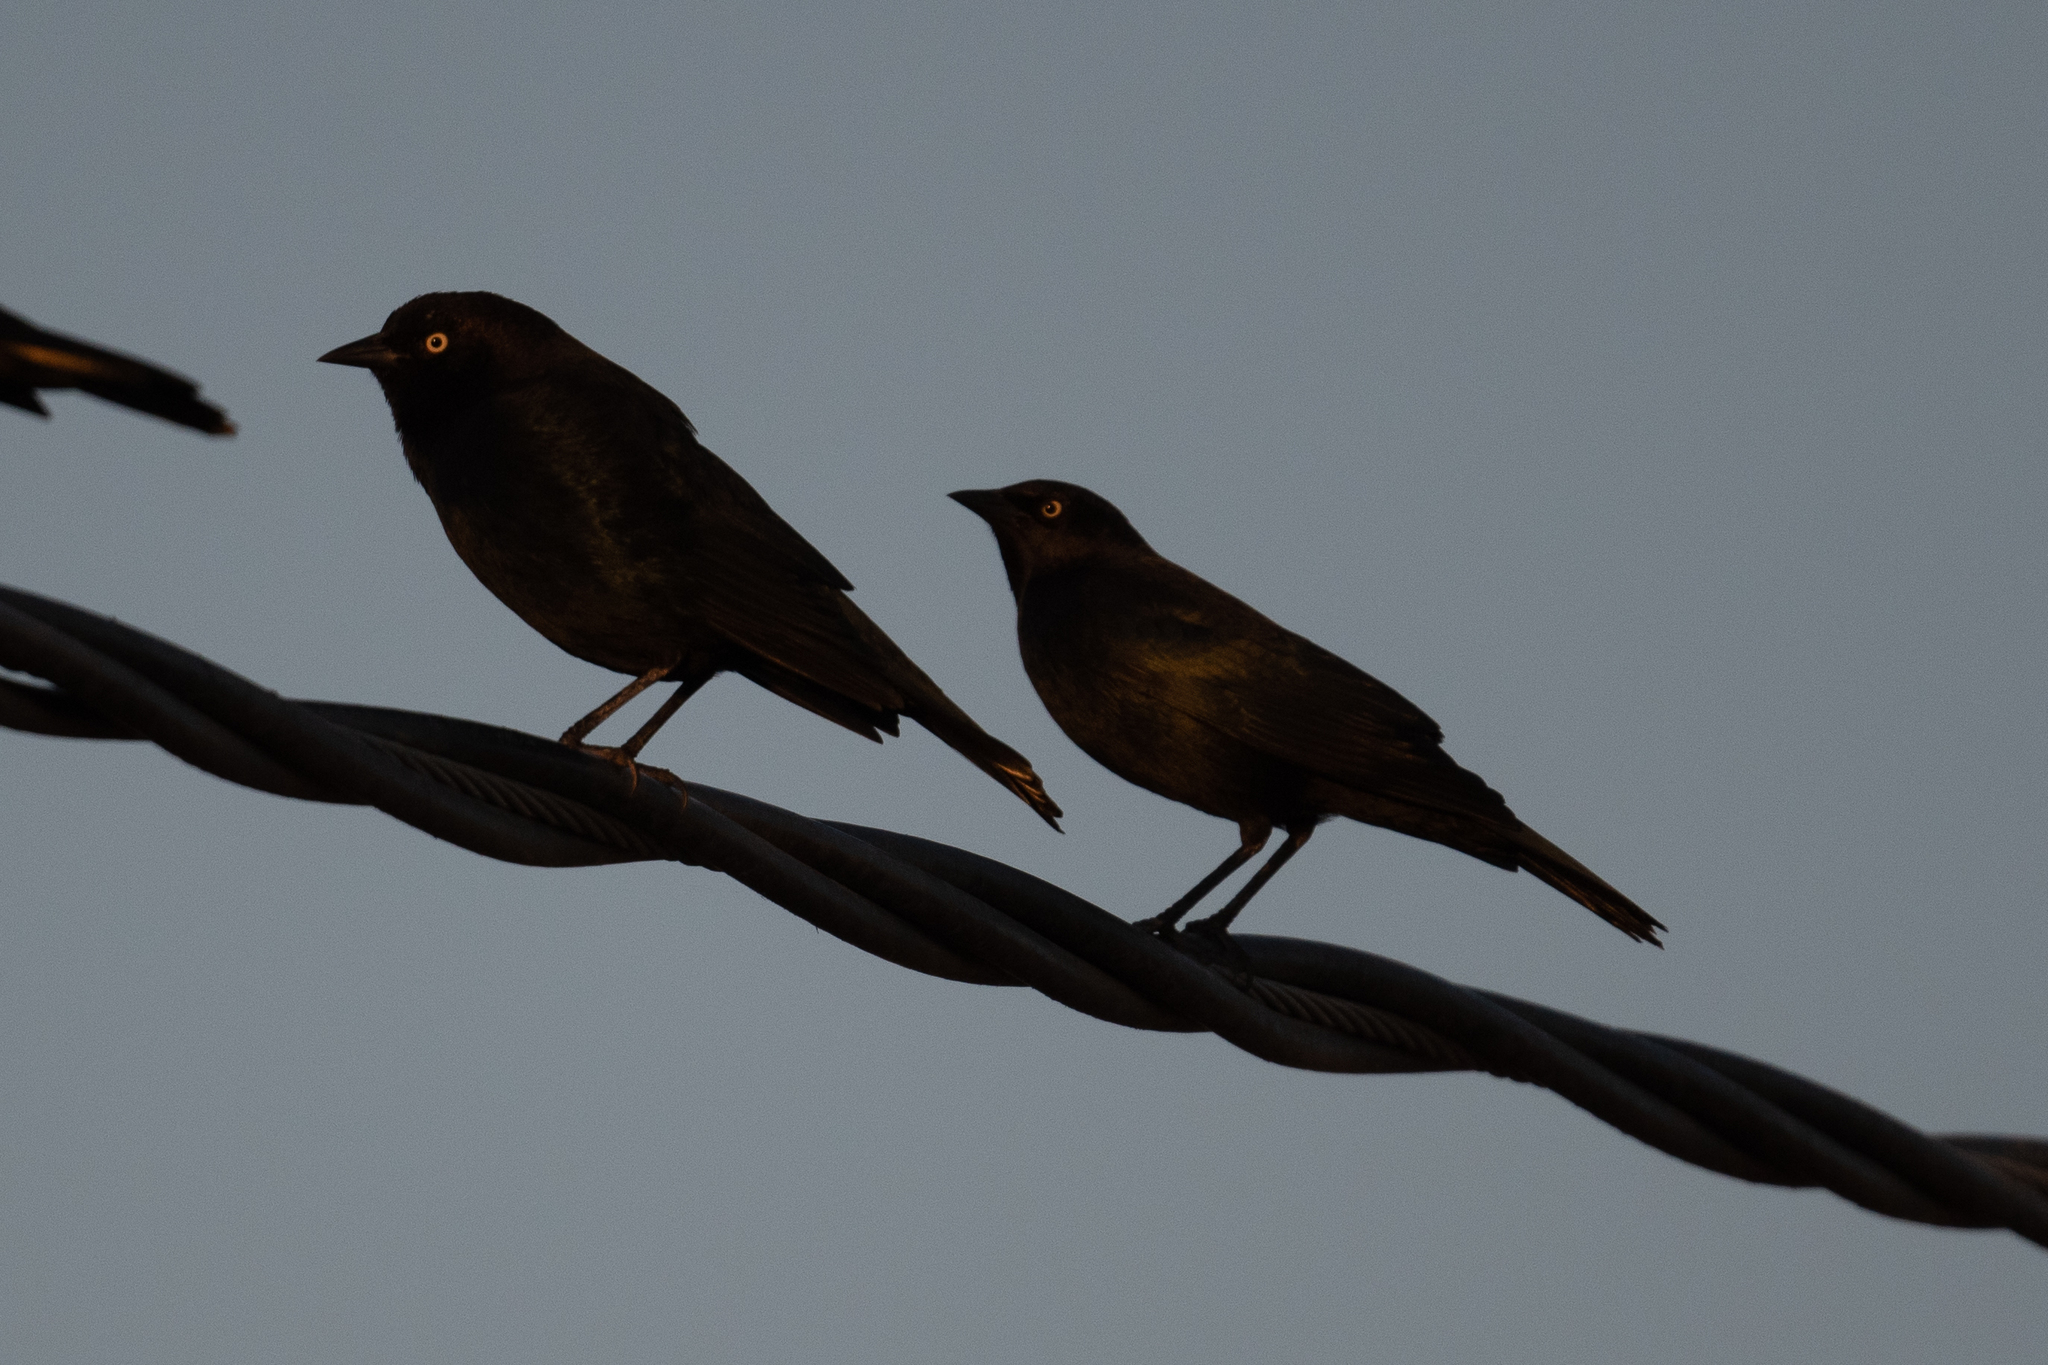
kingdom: Animalia
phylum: Chordata
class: Aves
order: Passeriformes
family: Icteridae
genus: Euphagus
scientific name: Euphagus cyanocephalus
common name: Brewer's blackbird
